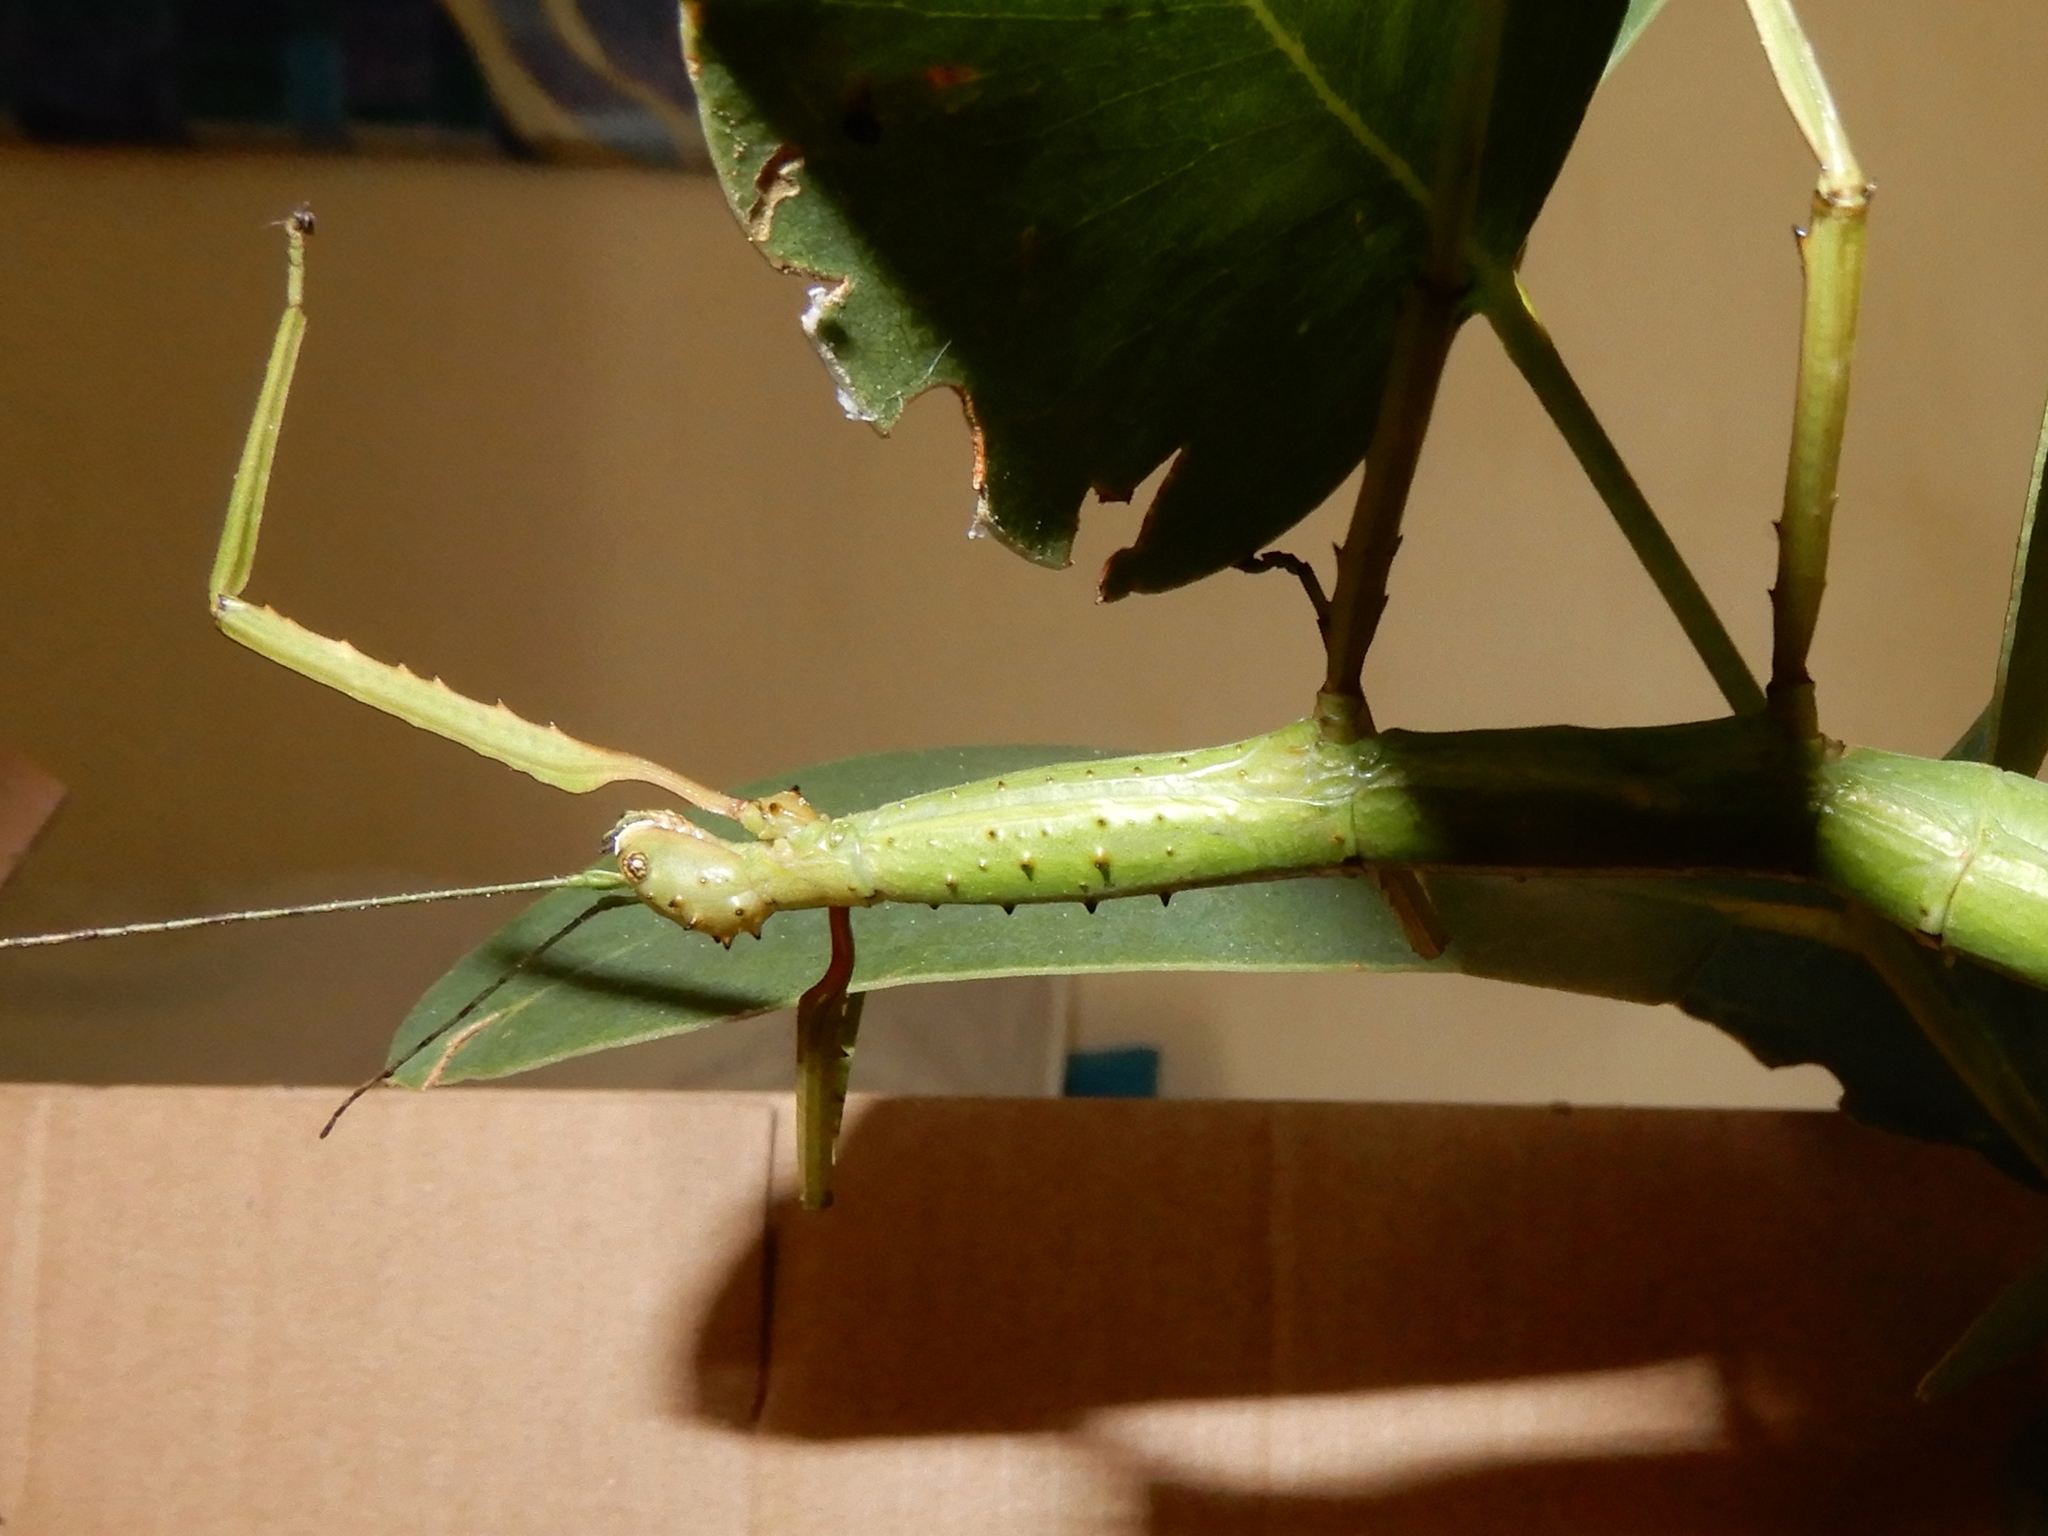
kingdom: Animalia
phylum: Arthropoda
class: Insecta
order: Phasmida
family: Phasmatidae
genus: Acanthoxyla
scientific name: Acanthoxyla inermis
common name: Unarmed stick insect
